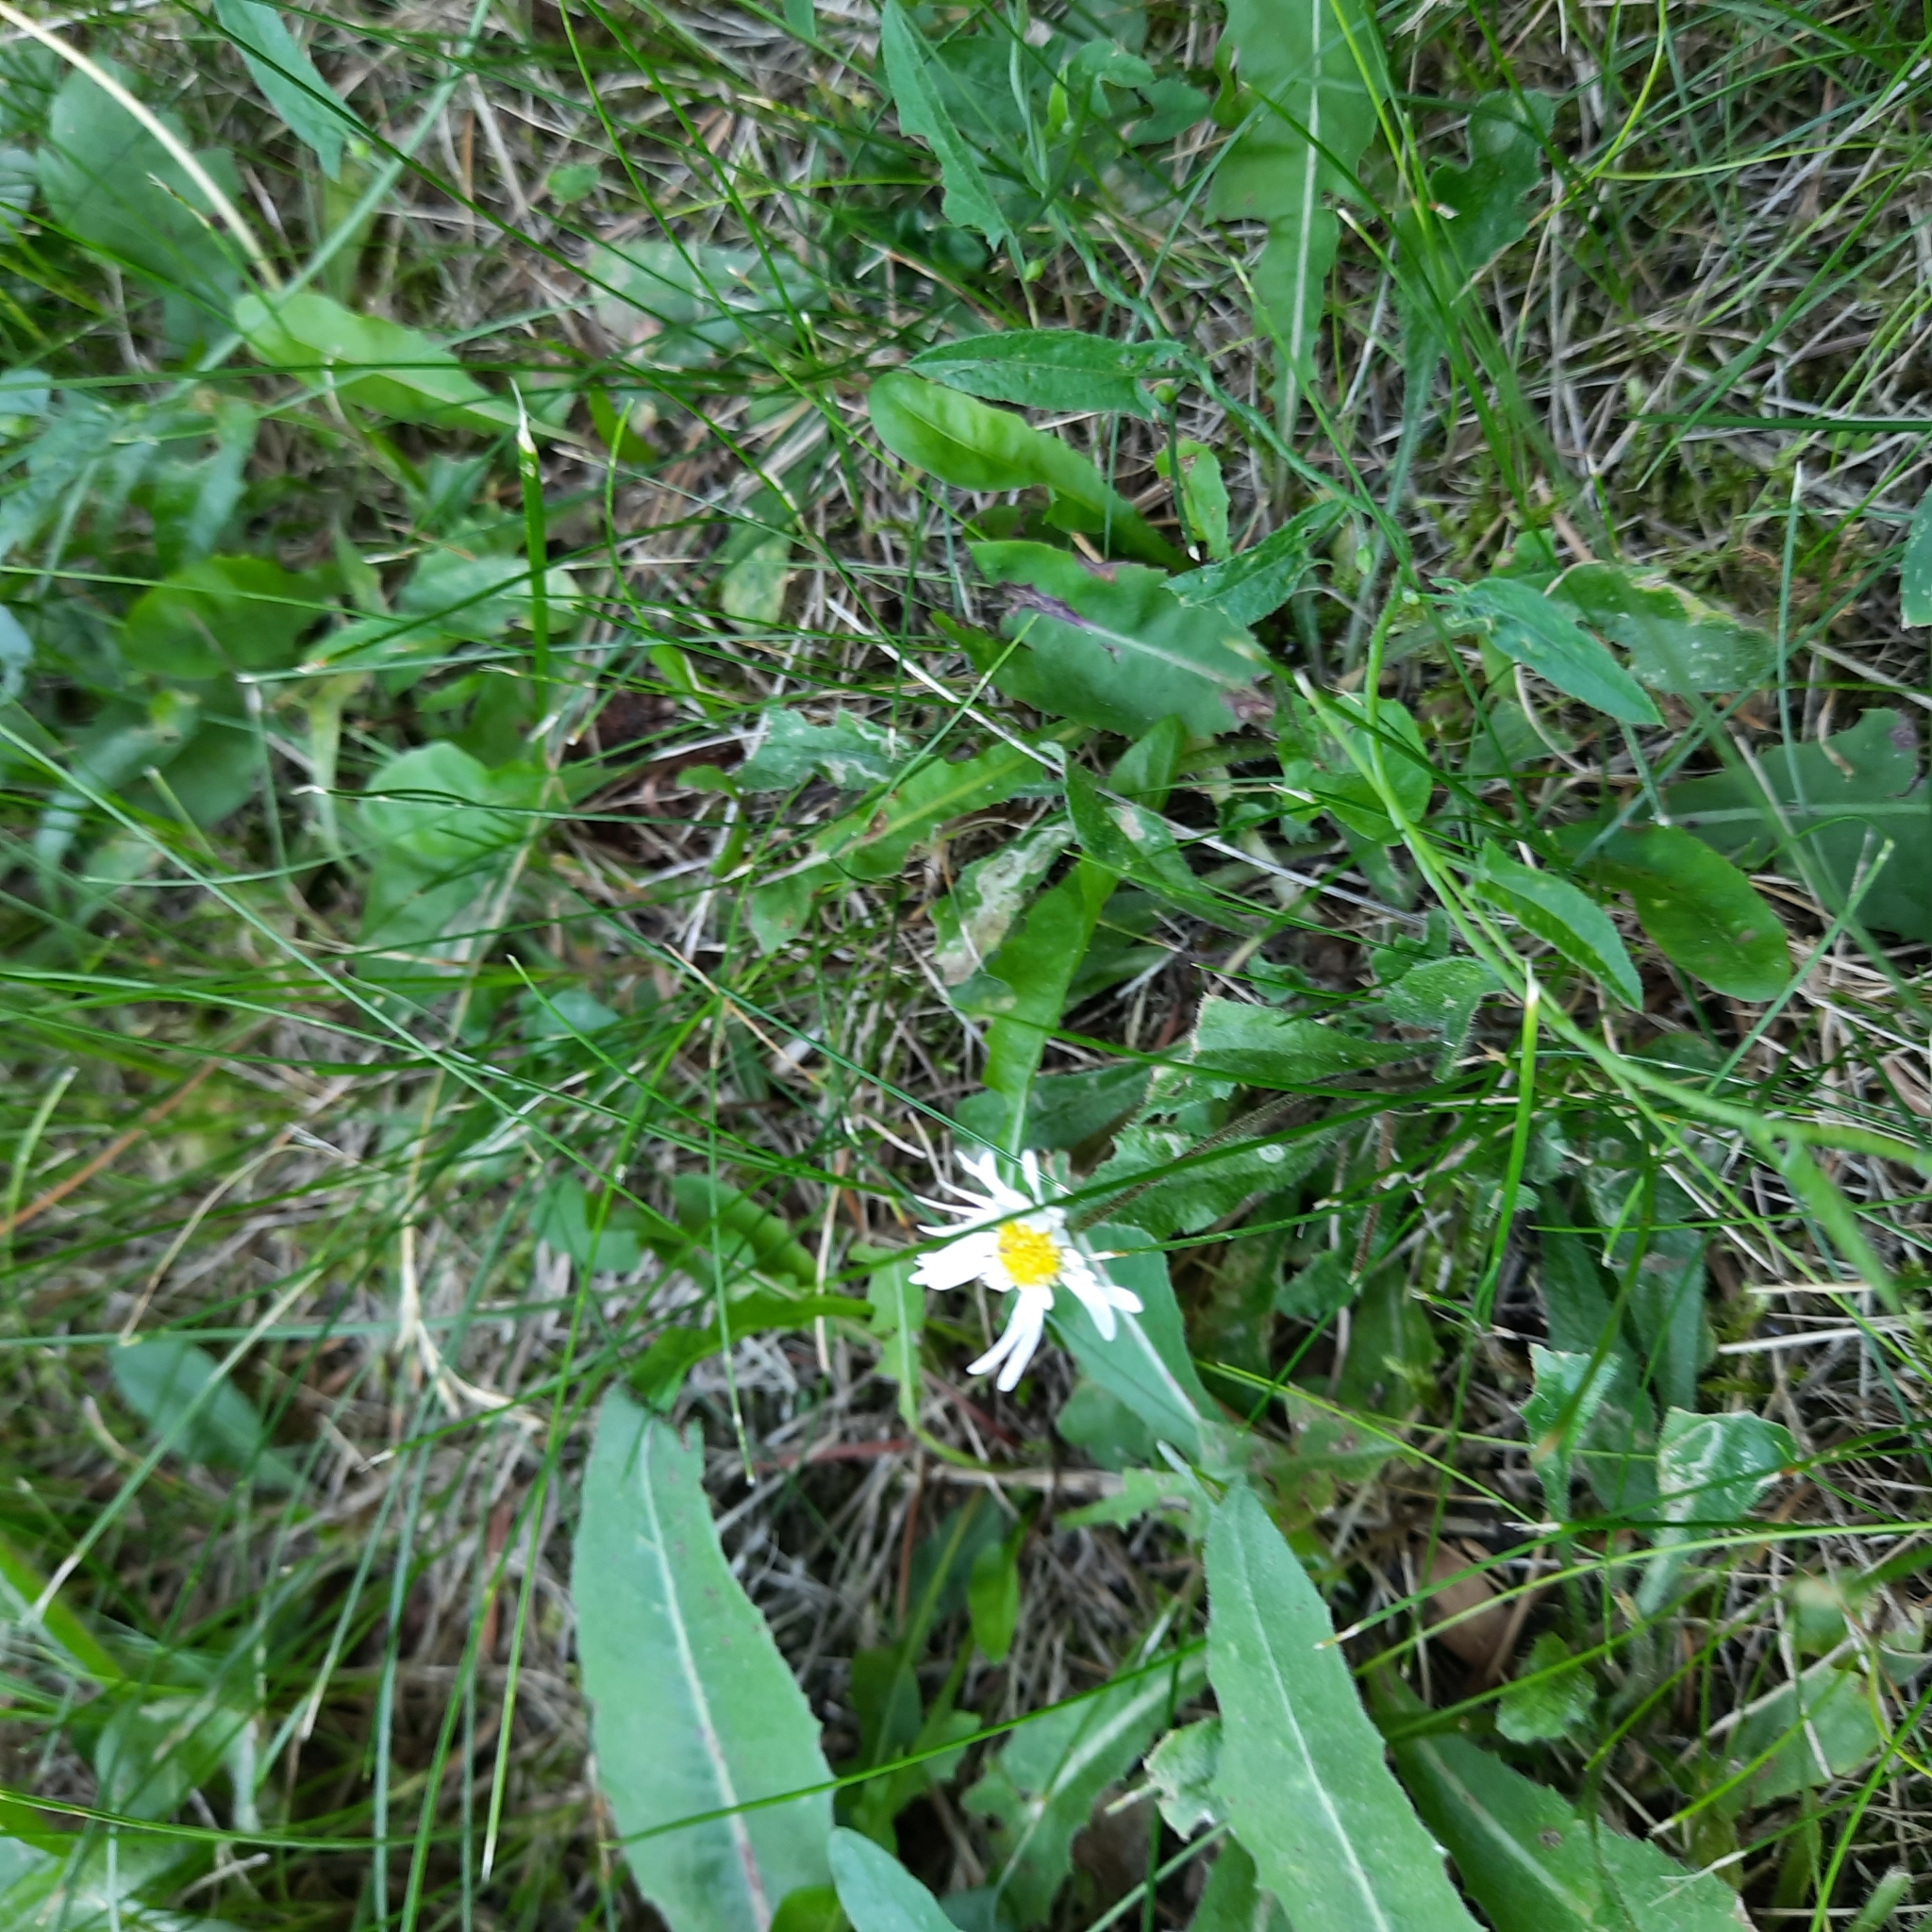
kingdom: Plantae
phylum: Tracheophyta
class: Magnoliopsida
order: Asterales
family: Asteraceae
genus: Bellis
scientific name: Bellis perennis
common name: Lawndaisy
